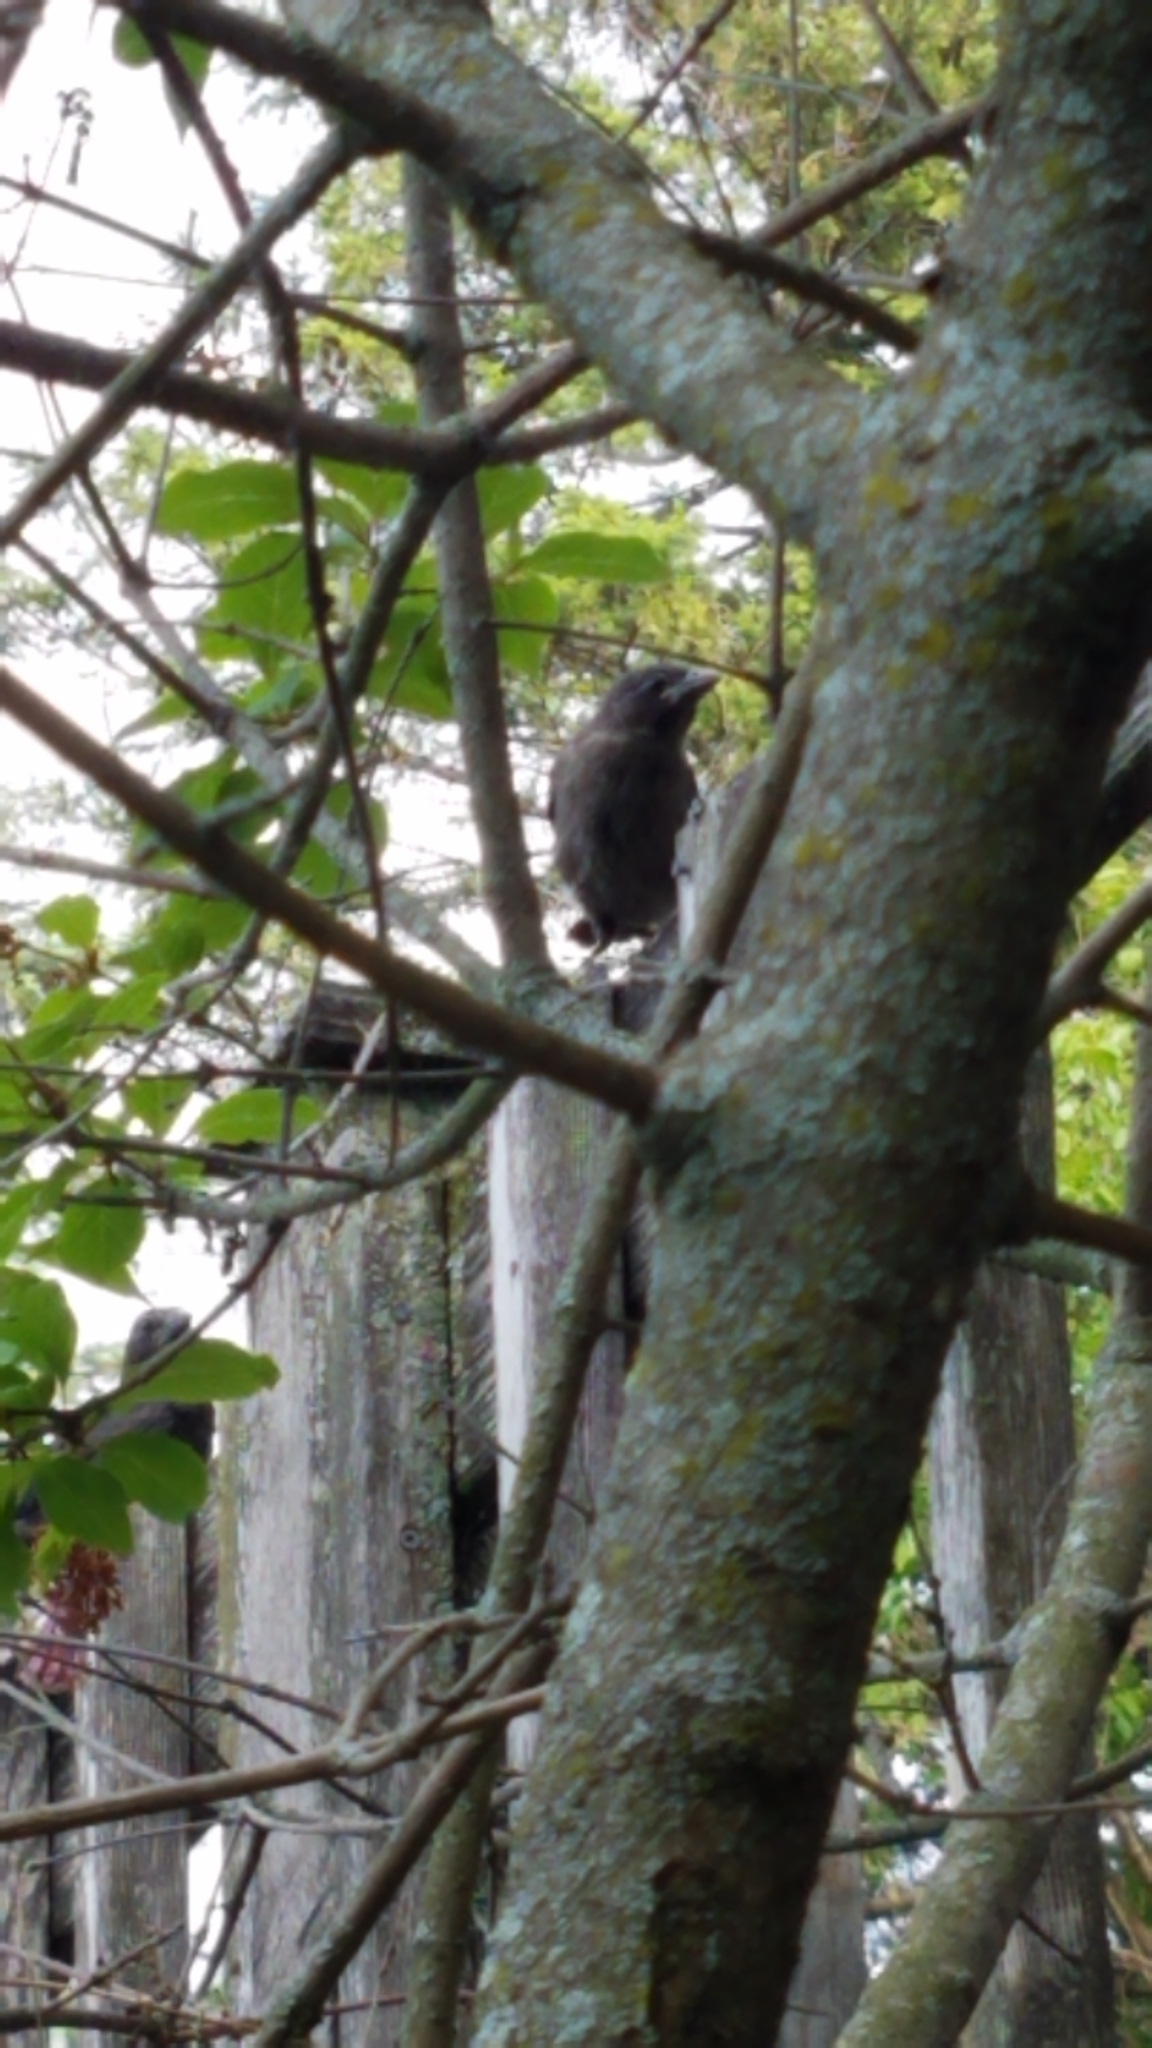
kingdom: Animalia
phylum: Chordata
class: Aves
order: Passeriformes
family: Icteridae
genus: Quiscalus
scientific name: Quiscalus quiscula
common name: Common grackle
